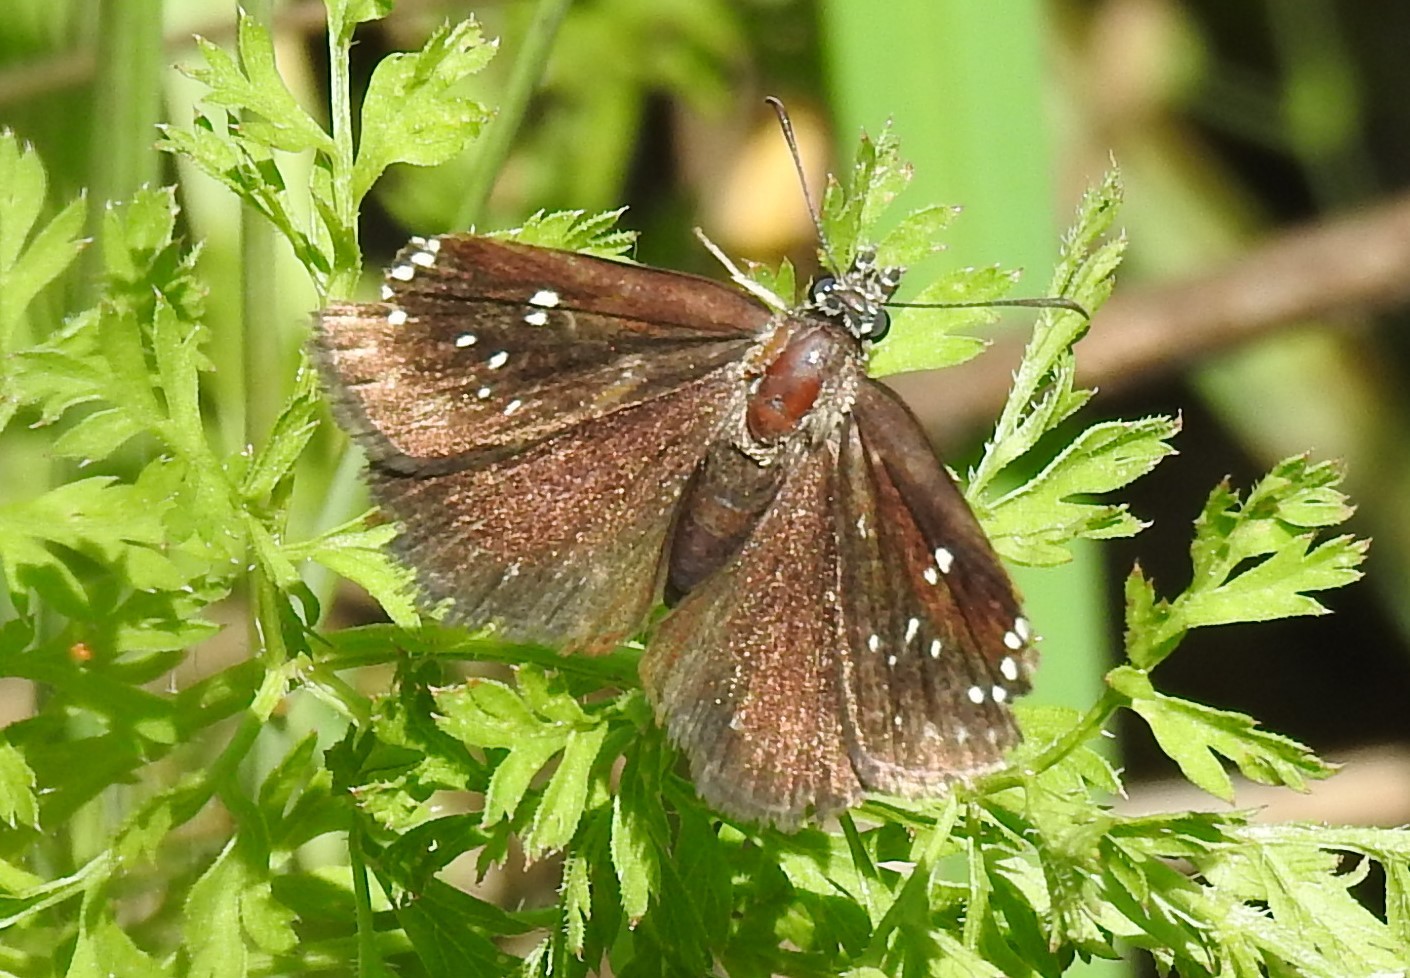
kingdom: Animalia
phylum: Arthropoda
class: Insecta
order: Lepidoptera
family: Hesperiidae
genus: Pholisora
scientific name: Pholisora catullus
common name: Common sootywing
